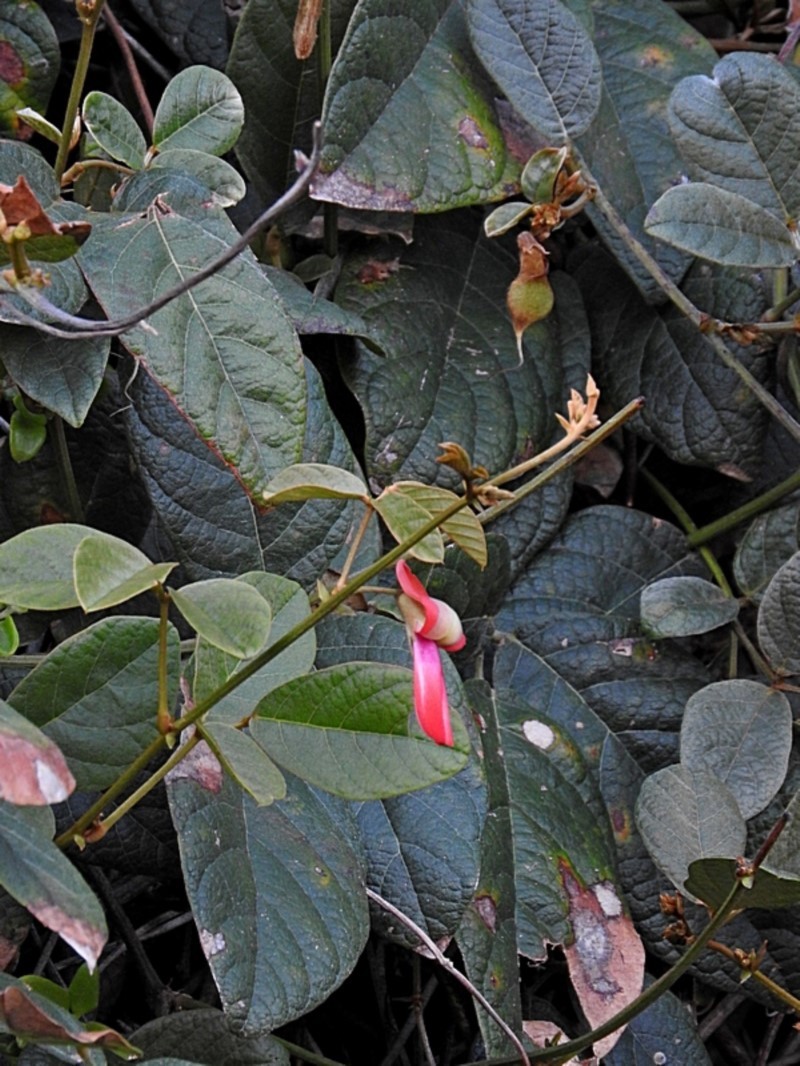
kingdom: Plantae
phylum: Tracheophyta
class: Magnoliopsida
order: Fabales
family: Fabaceae
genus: Kennedia
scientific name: Kennedia rubicunda
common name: Red kennedy-pea
